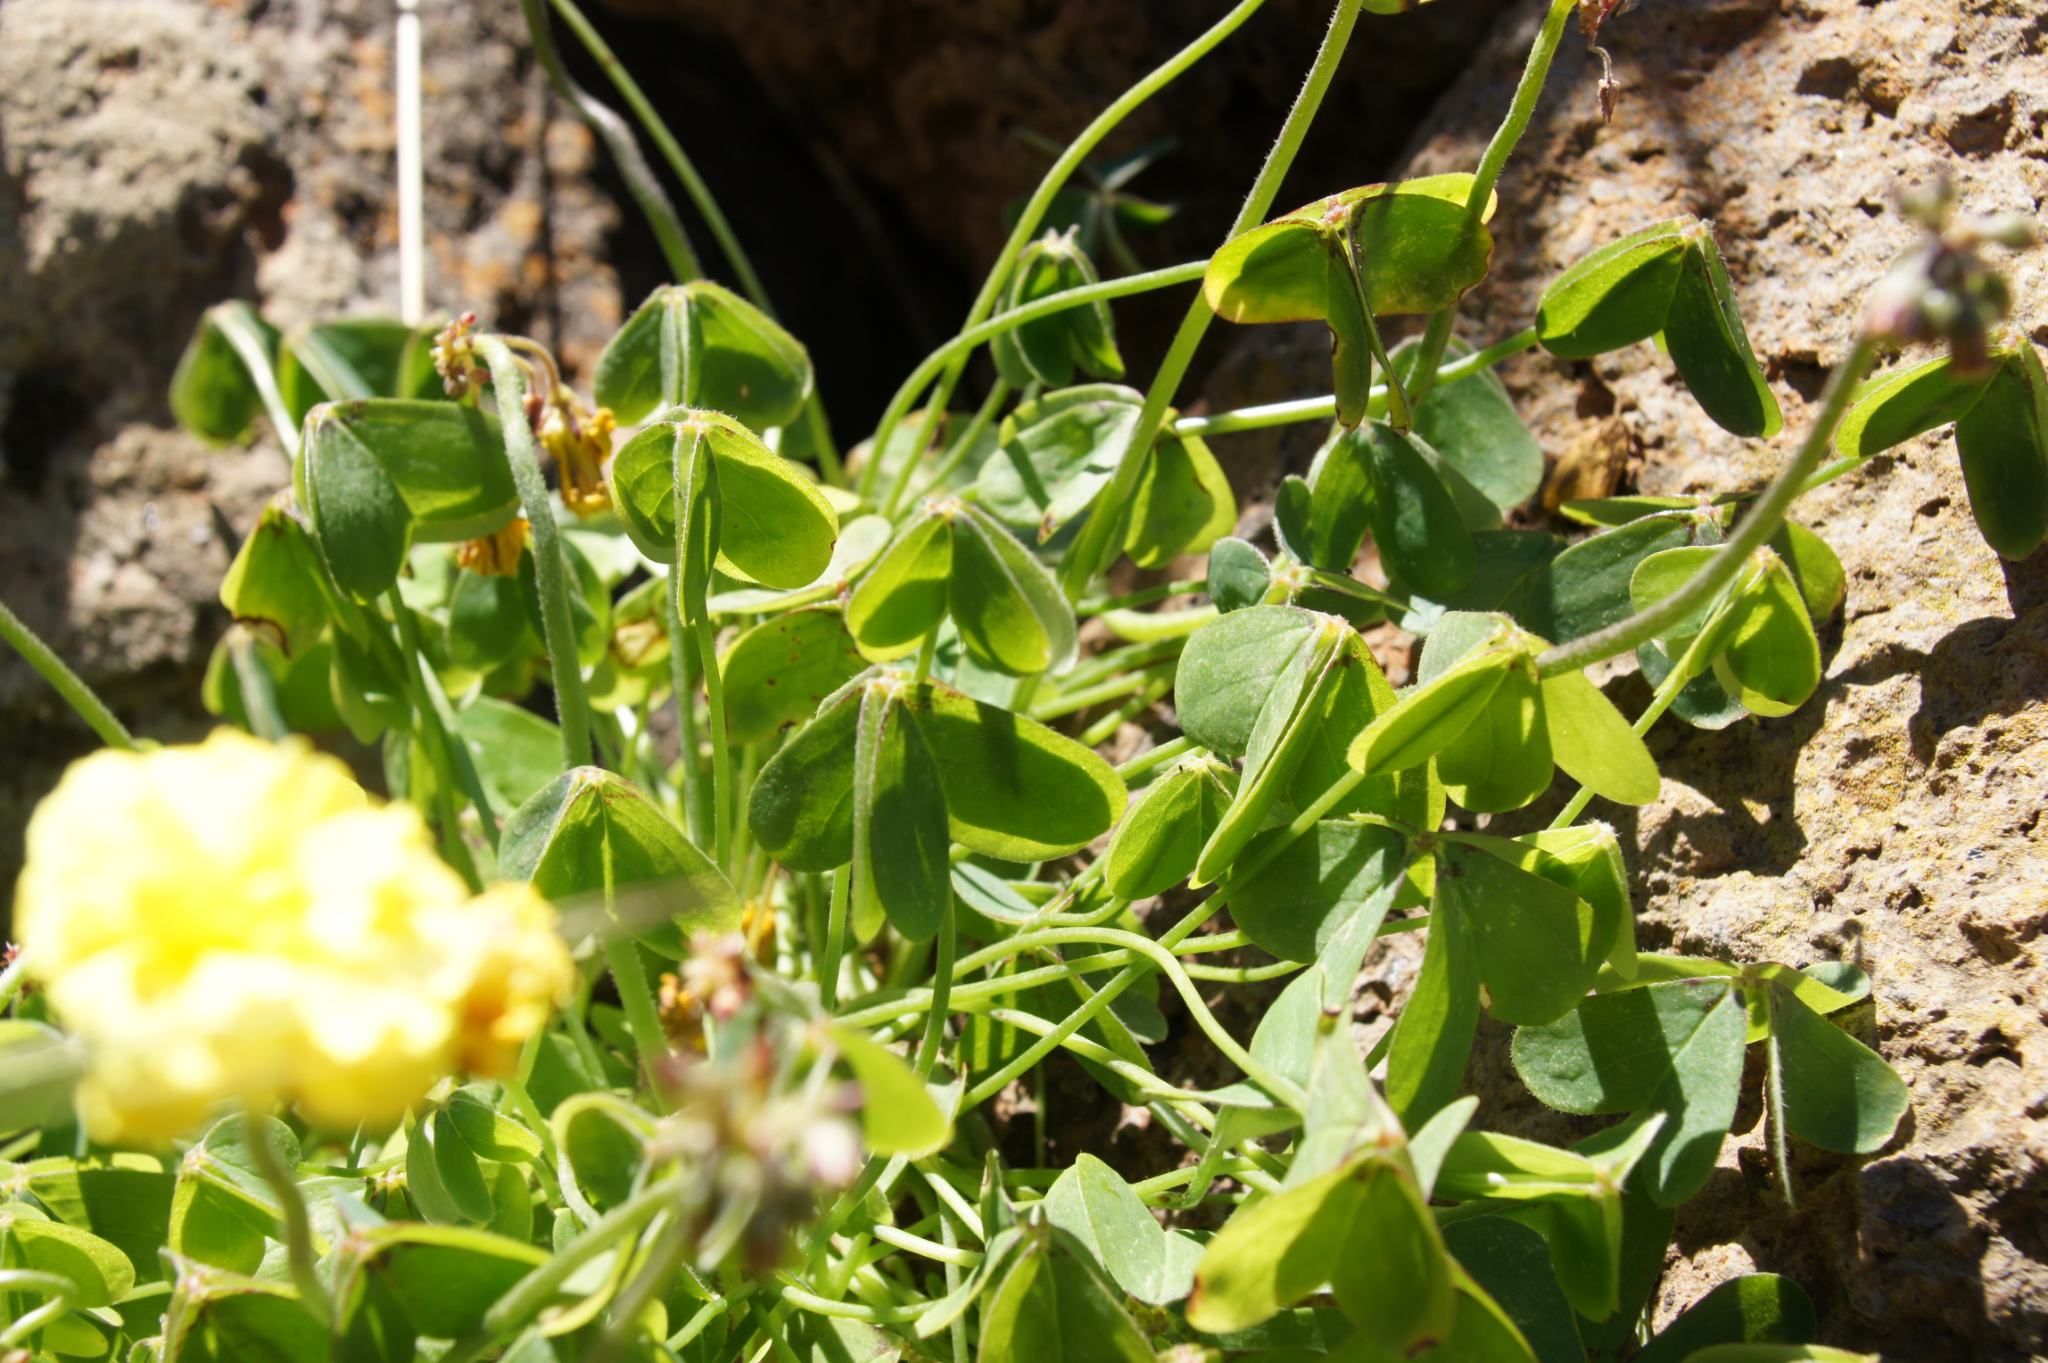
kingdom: Plantae
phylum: Tracheophyta
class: Magnoliopsida
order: Oxalidales
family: Oxalidaceae
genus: Oxalis
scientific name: Oxalis pes-caprae
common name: Bermuda-buttercup
